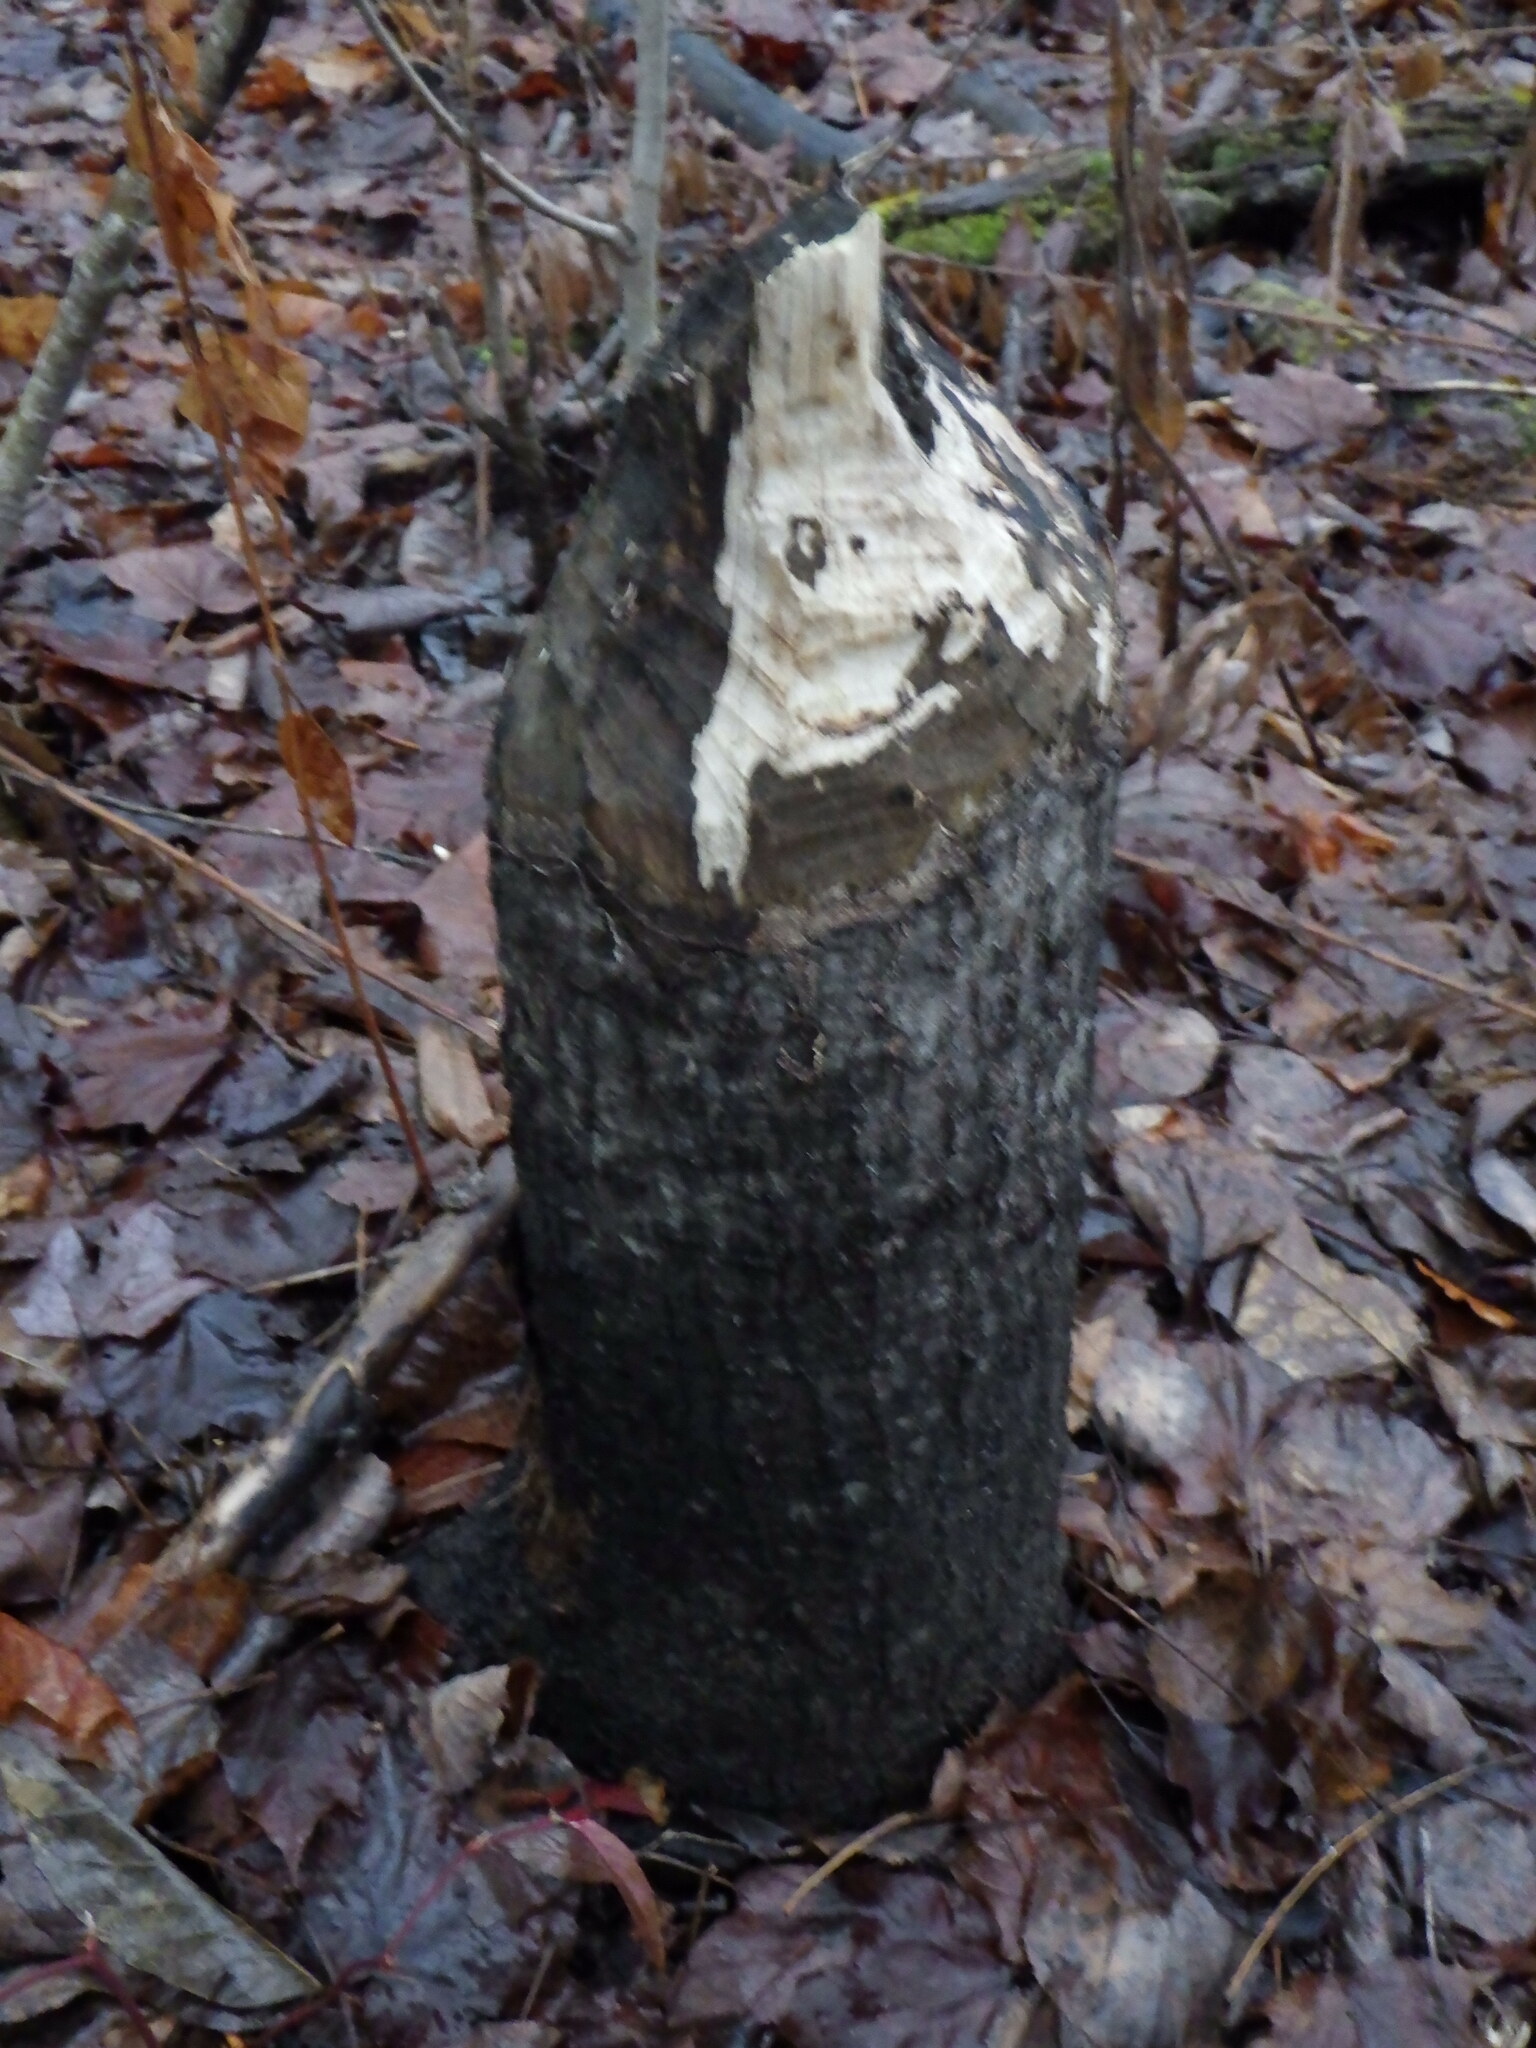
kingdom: Animalia
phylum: Chordata
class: Mammalia
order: Rodentia
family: Castoridae
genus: Castor
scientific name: Castor canadensis
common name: American beaver
